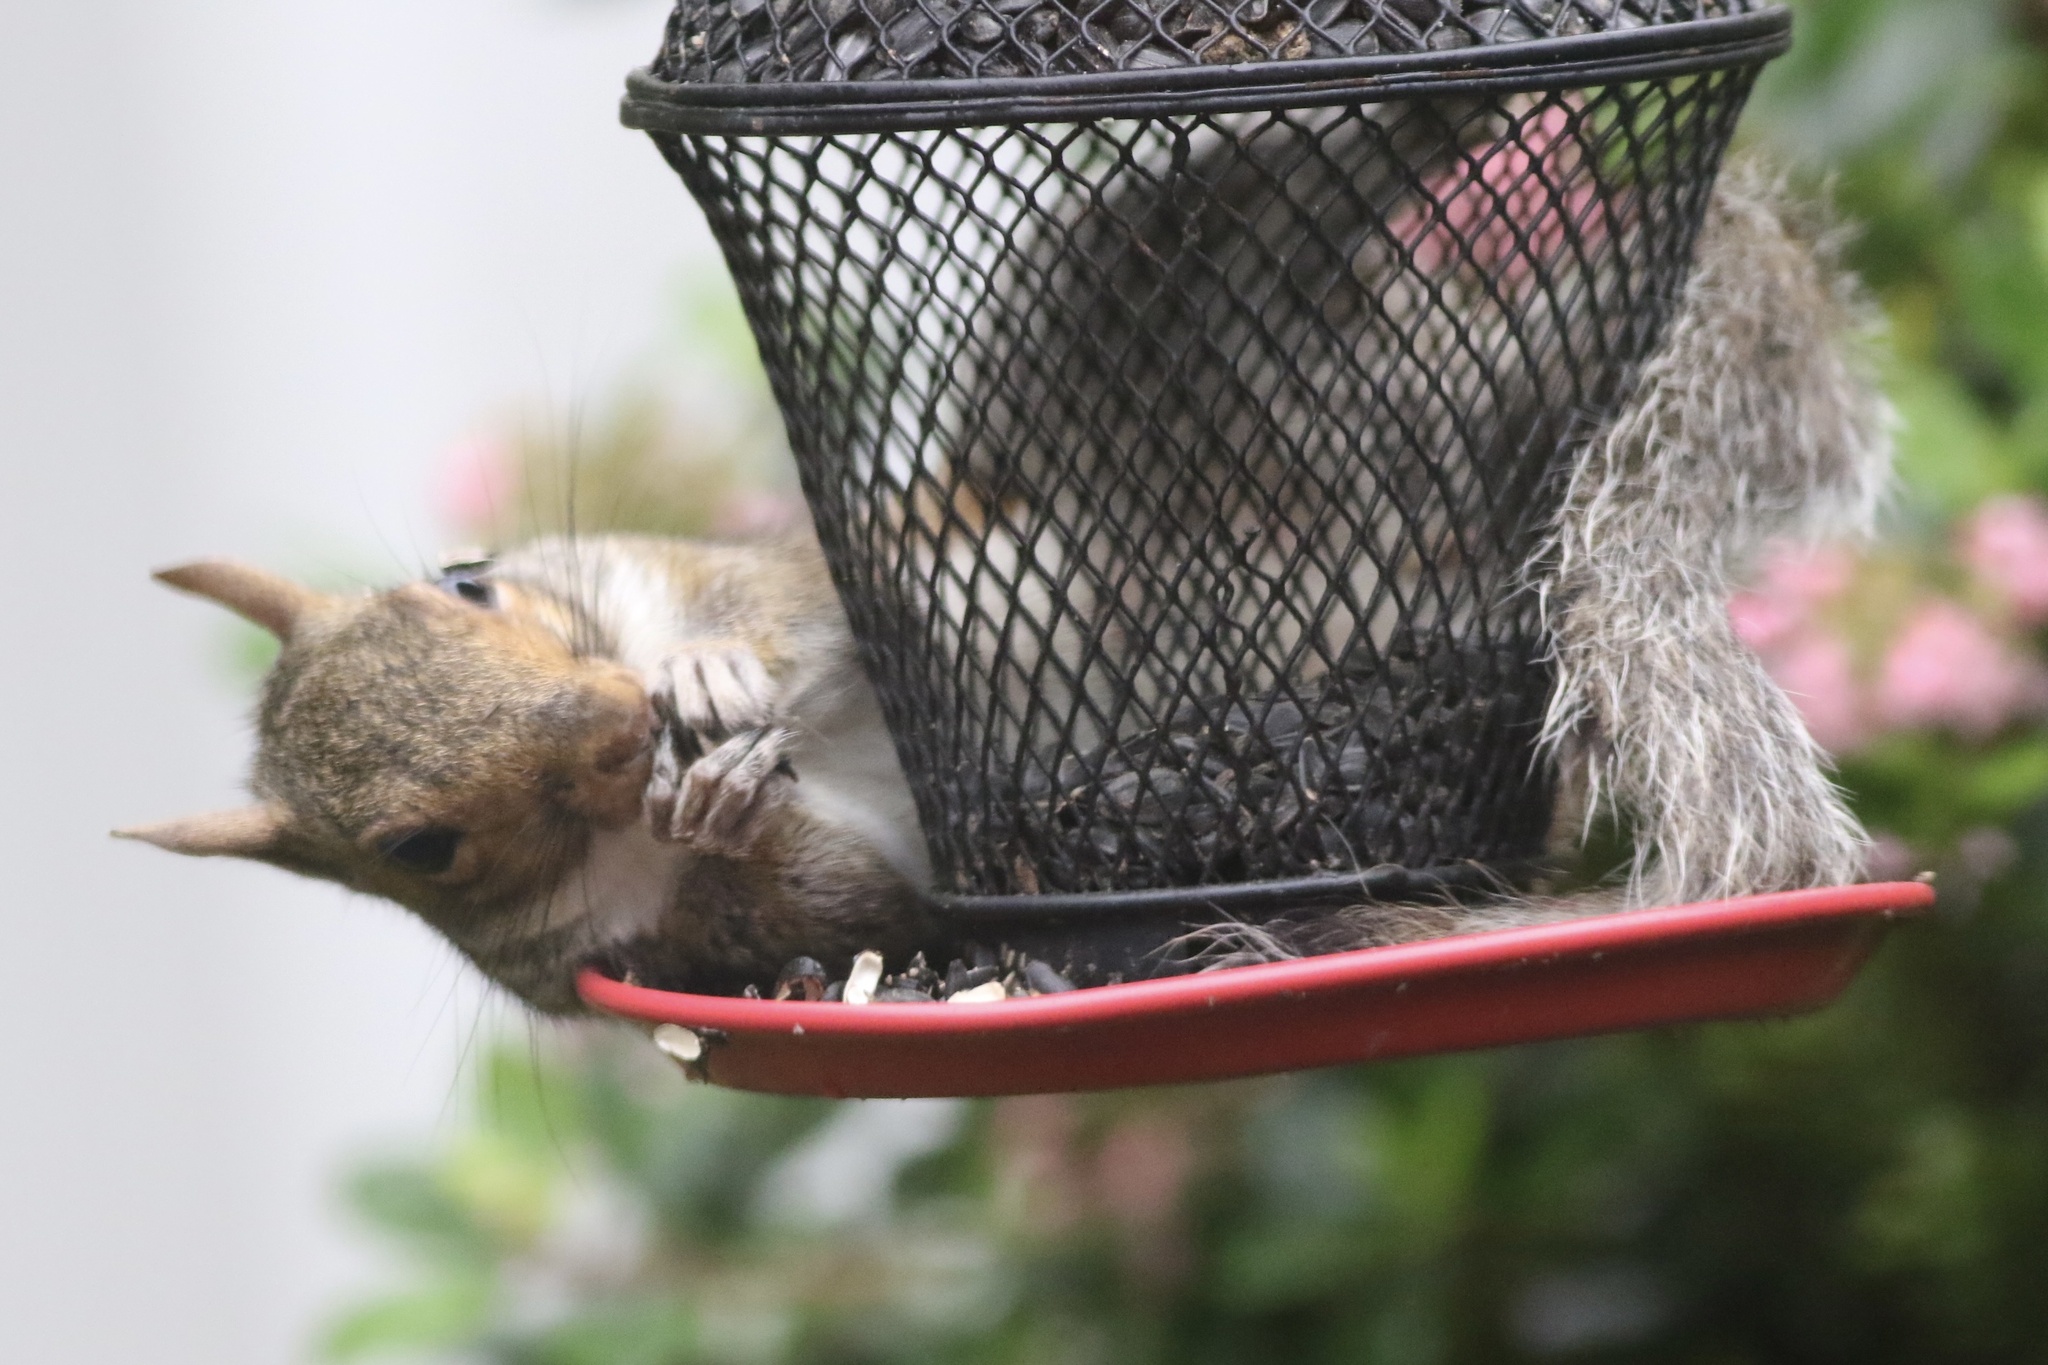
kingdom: Animalia
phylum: Chordata
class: Mammalia
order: Rodentia
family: Sciuridae
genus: Sciurus
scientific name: Sciurus carolinensis
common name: Eastern gray squirrel
